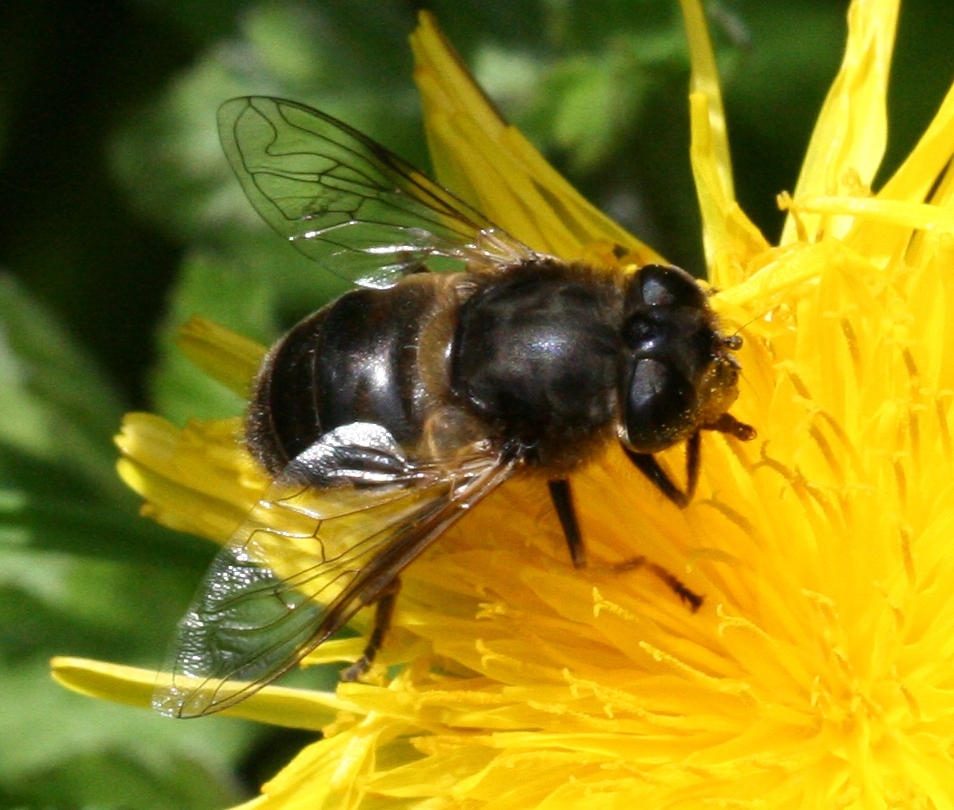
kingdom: Animalia
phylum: Arthropoda
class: Insecta
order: Diptera
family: Syrphidae
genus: Eristalis
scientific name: Eristalis tenax
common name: Drone fly
